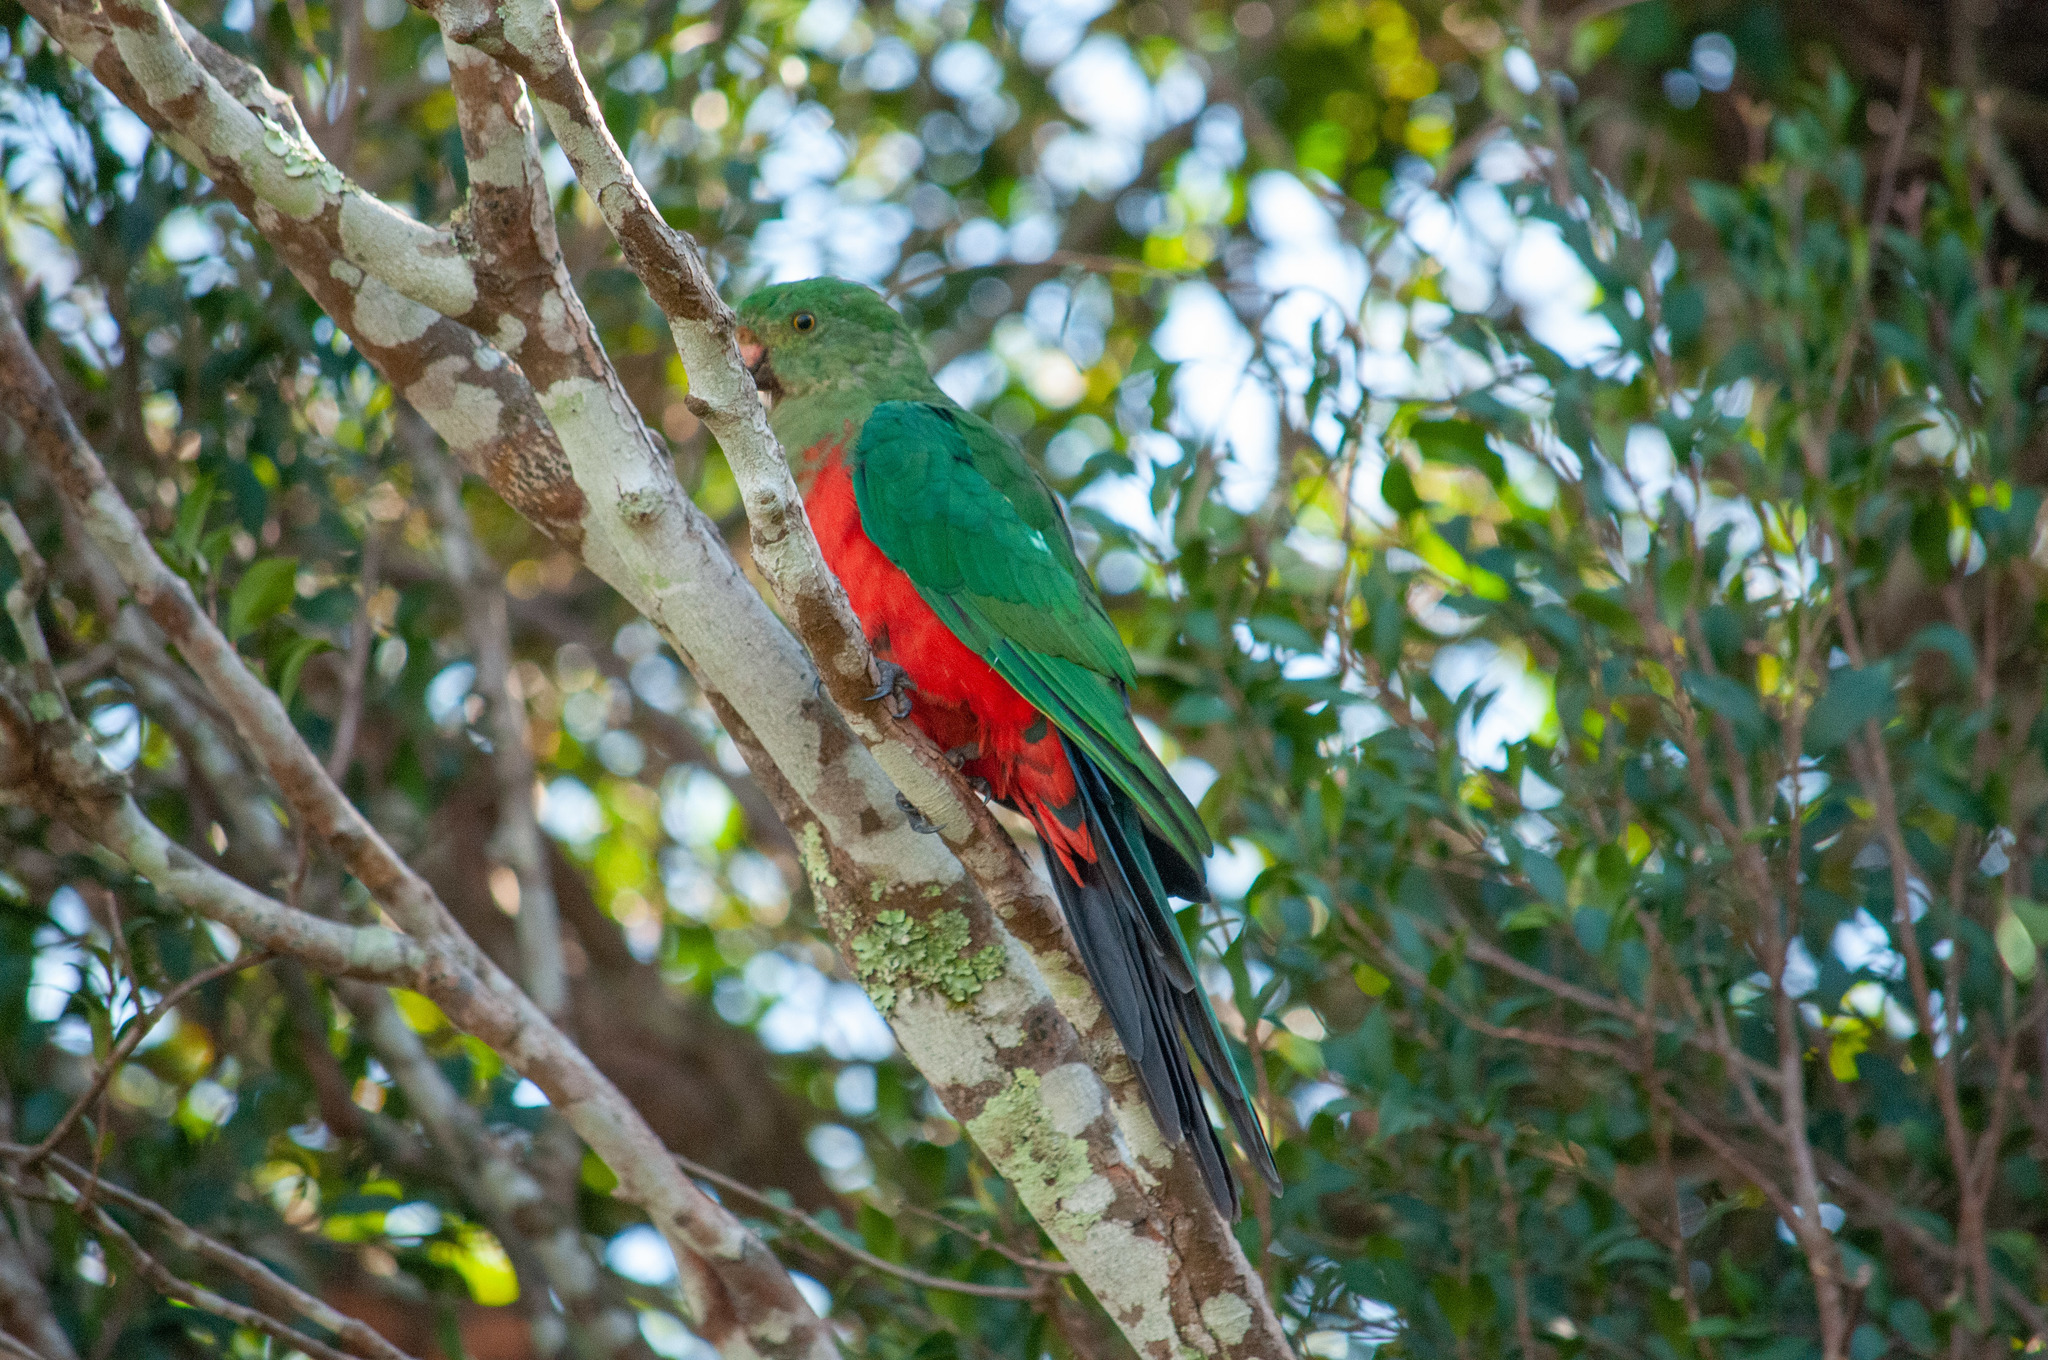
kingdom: Animalia
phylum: Chordata
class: Aves
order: Psittaciformes
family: Psittacidae
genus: Alisterus
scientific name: Alisterus scapularis
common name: Australian king parrot
